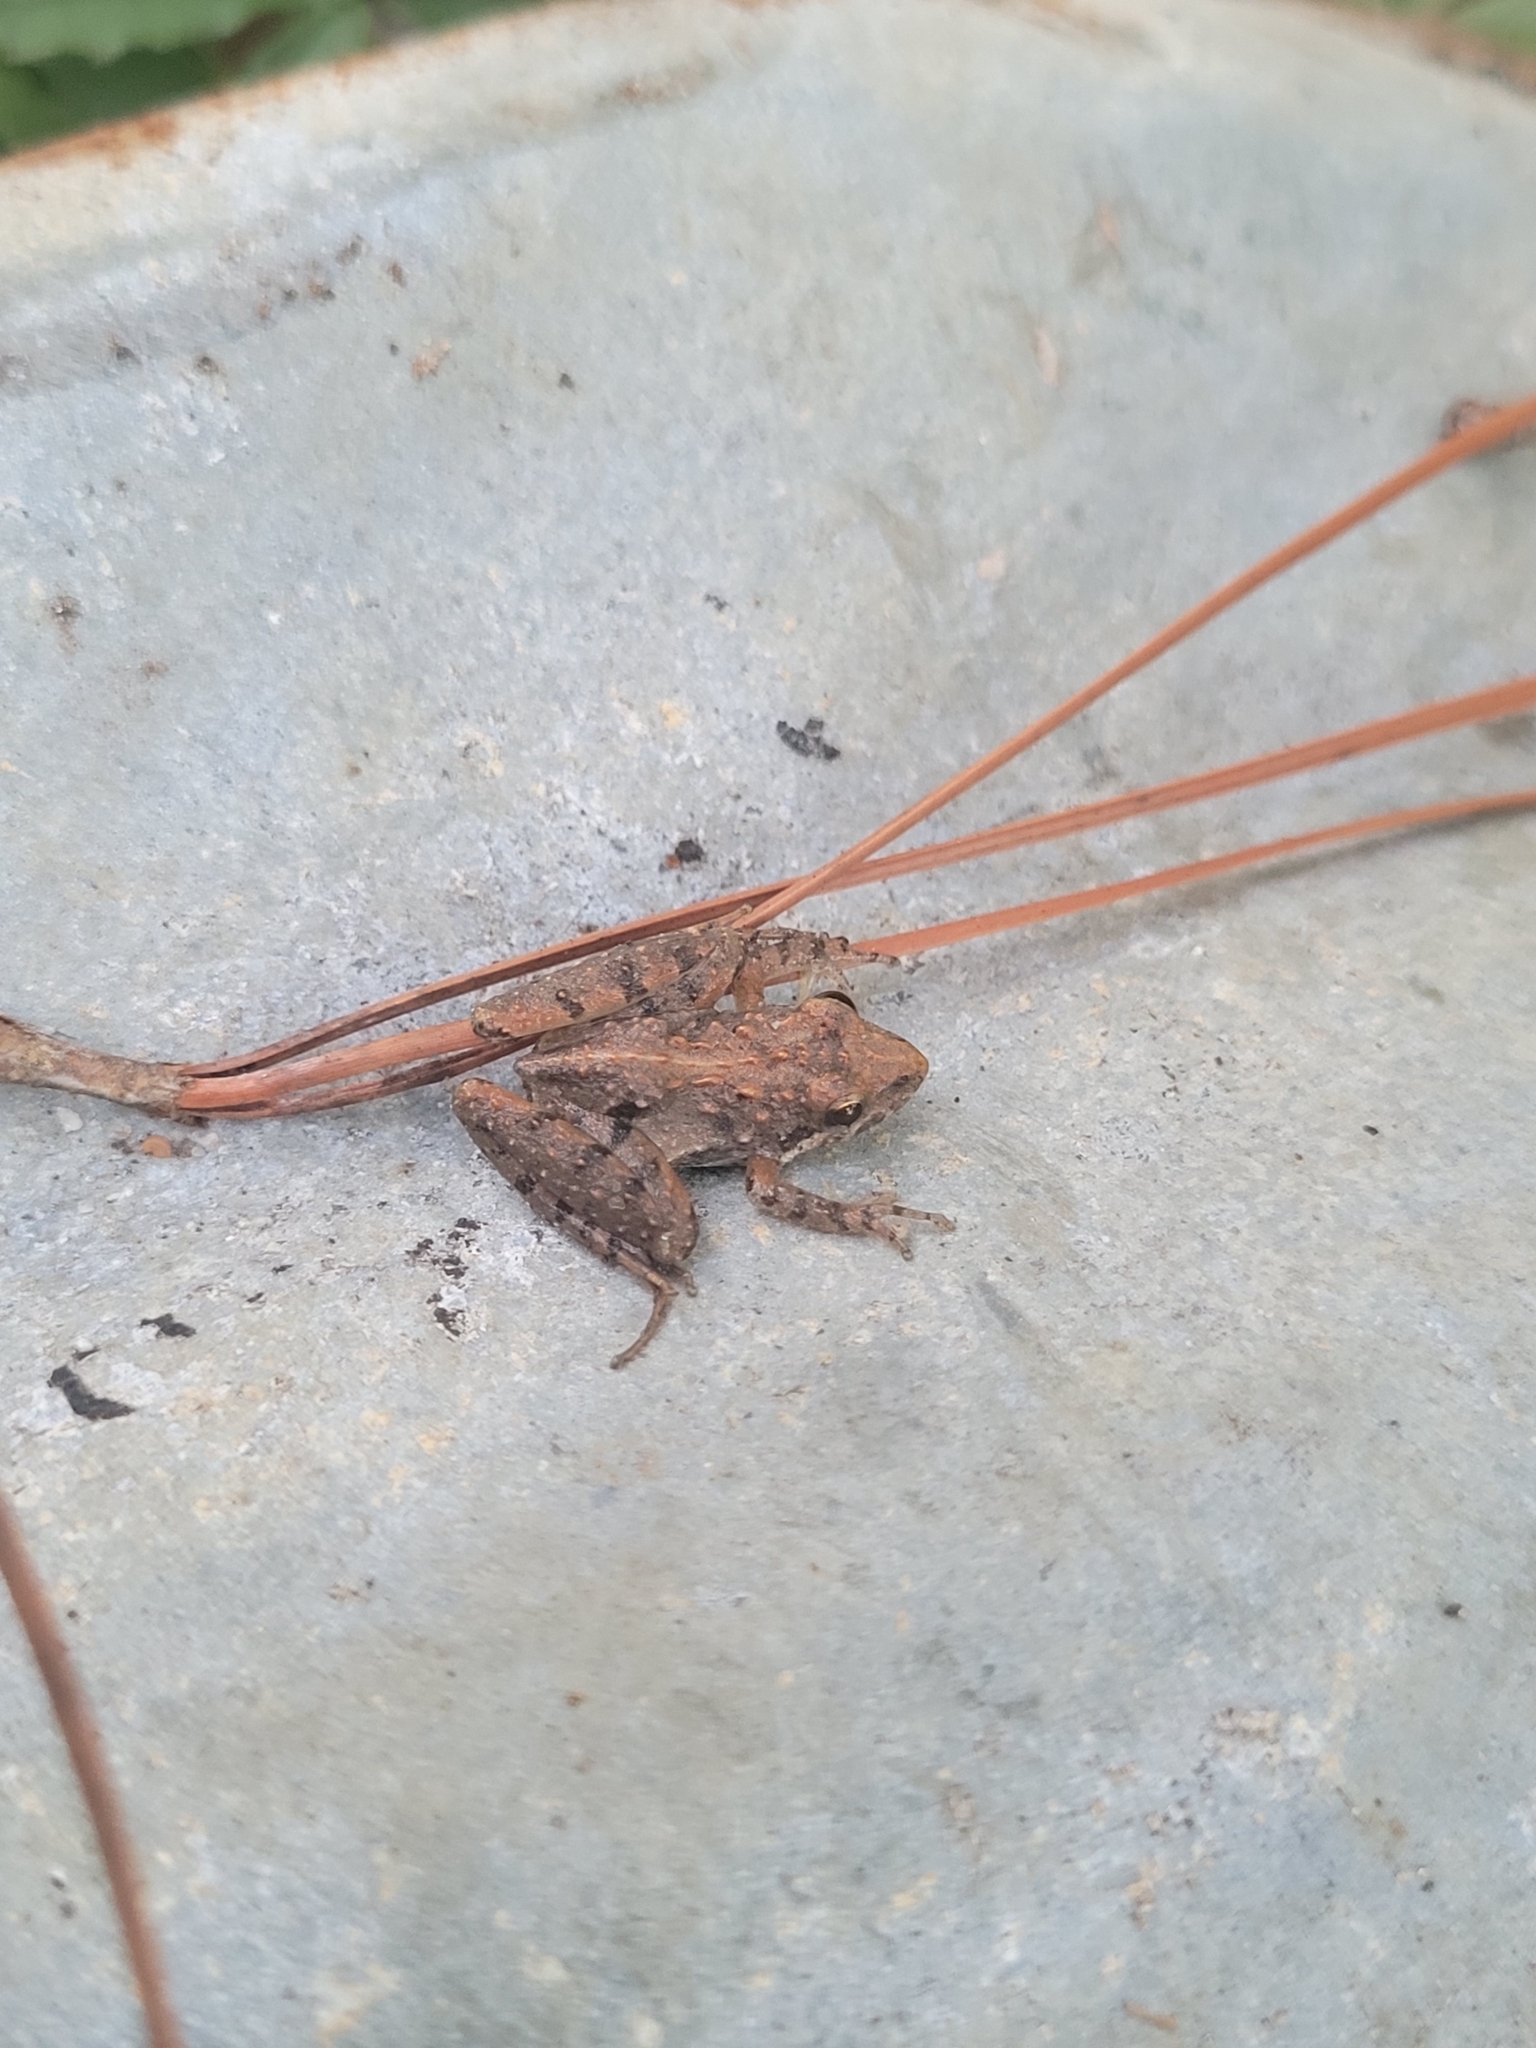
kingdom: Animalia
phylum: Chordata
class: Amphibia
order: Anura
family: Hylidae
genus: Acris
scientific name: Acris gryllus
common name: Southern cricket frog
